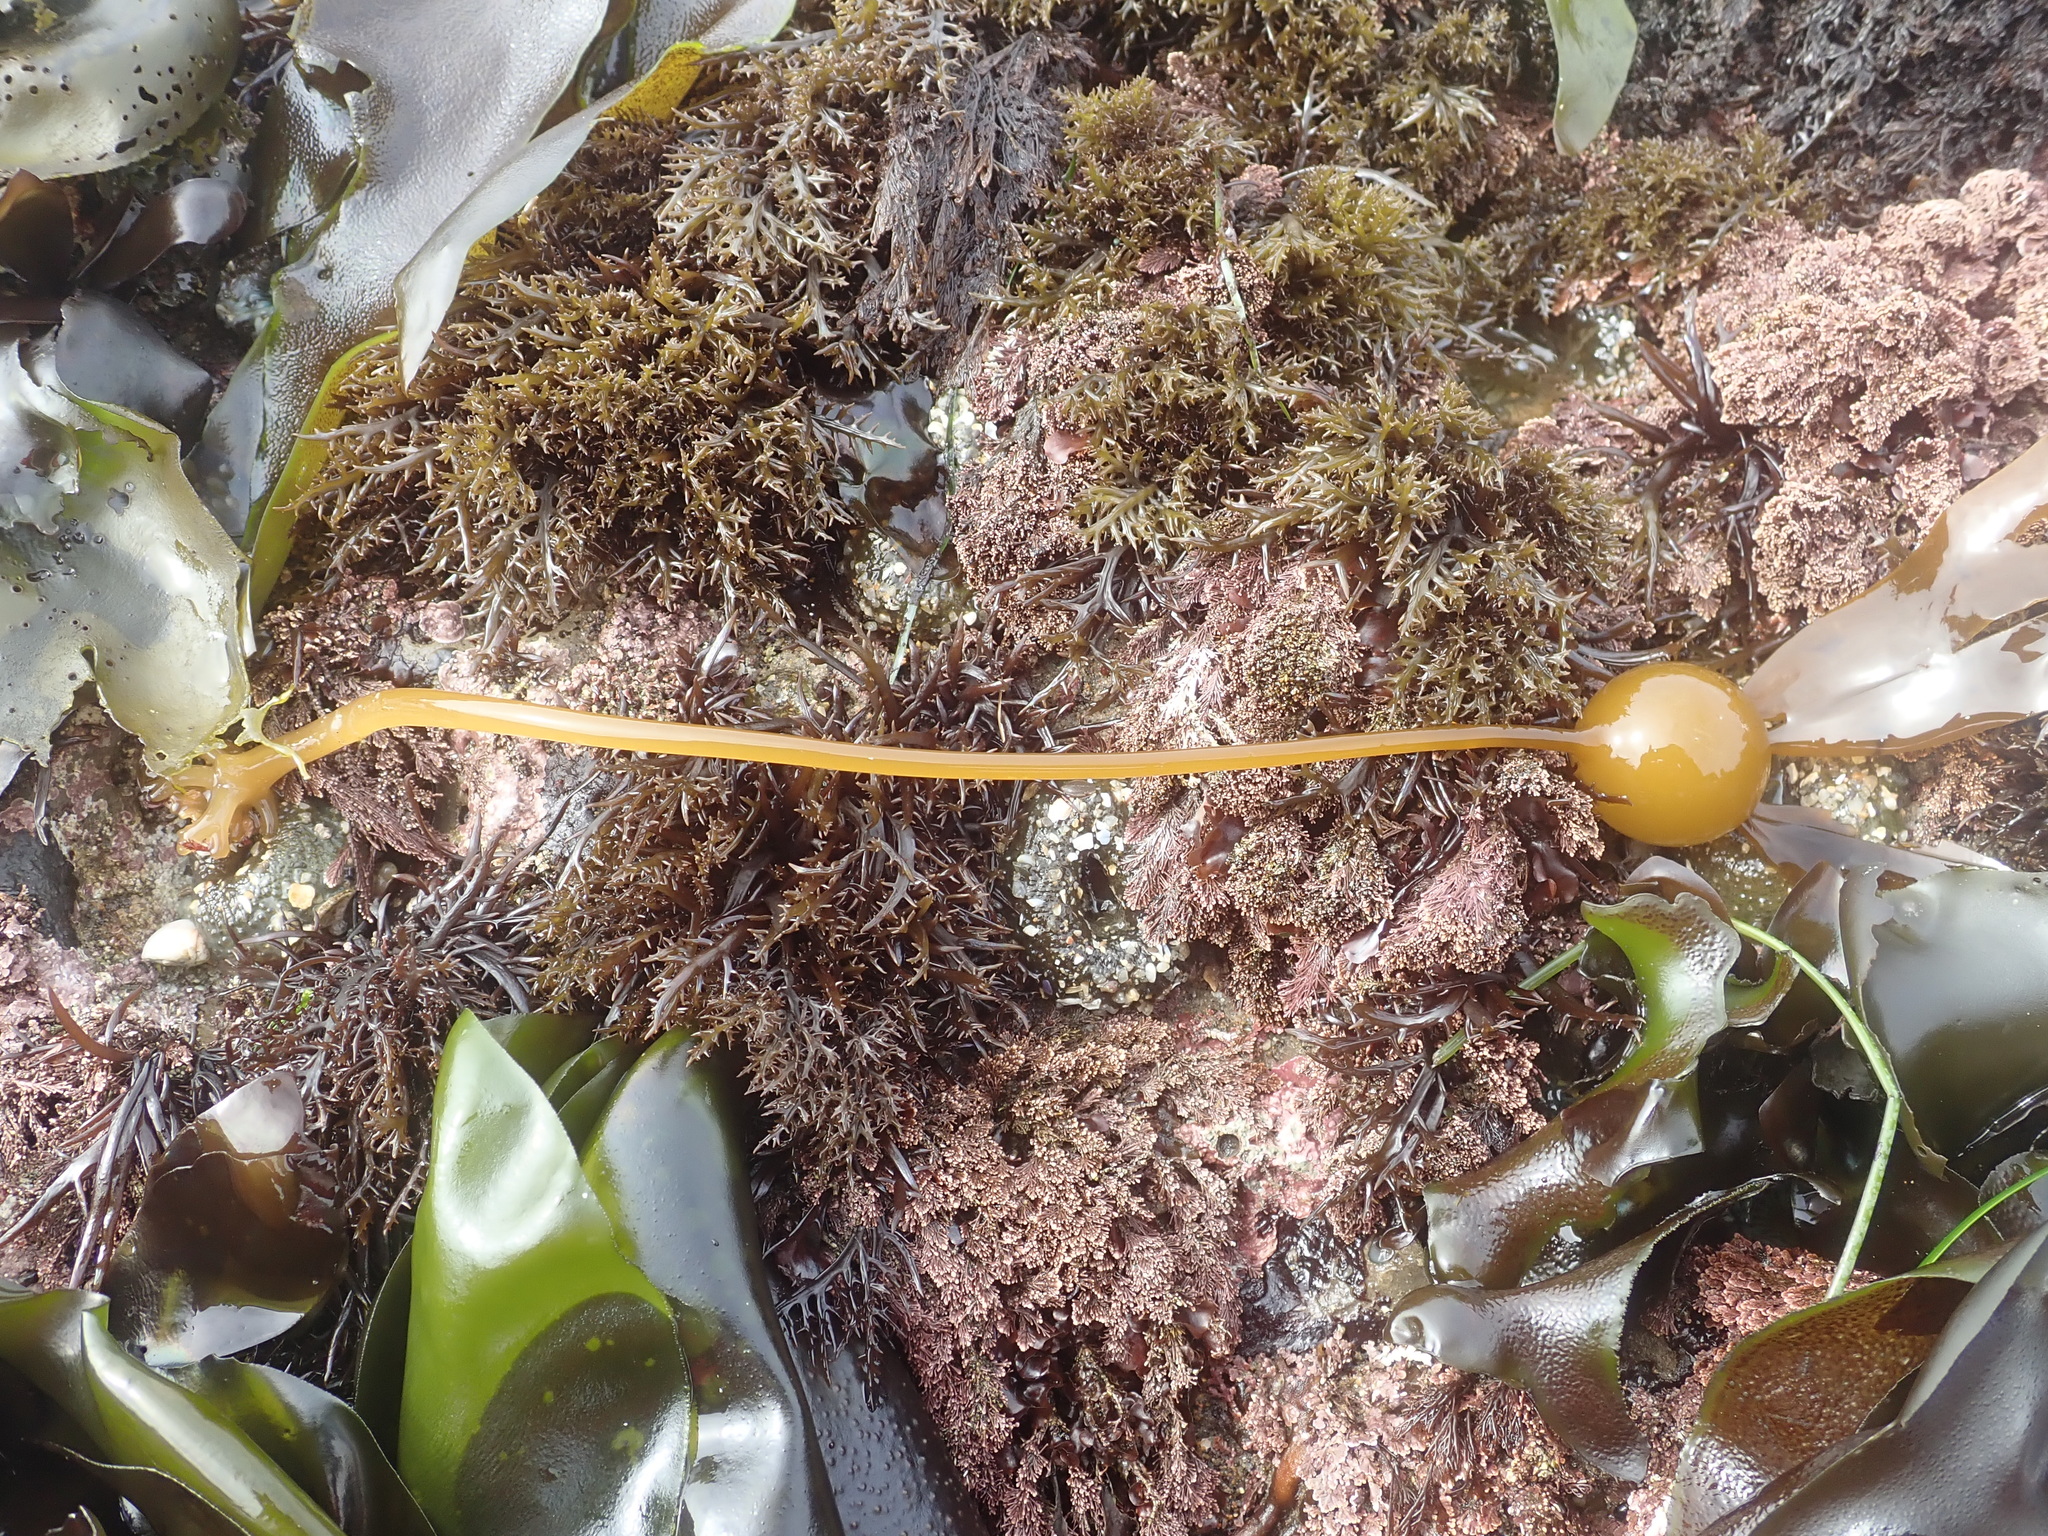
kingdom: Chromista
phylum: Ochrophyta
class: Phaeophyceae
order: Laminariales
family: Laminariaceae
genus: Nereocystis
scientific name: Nereocystis luetkeana
